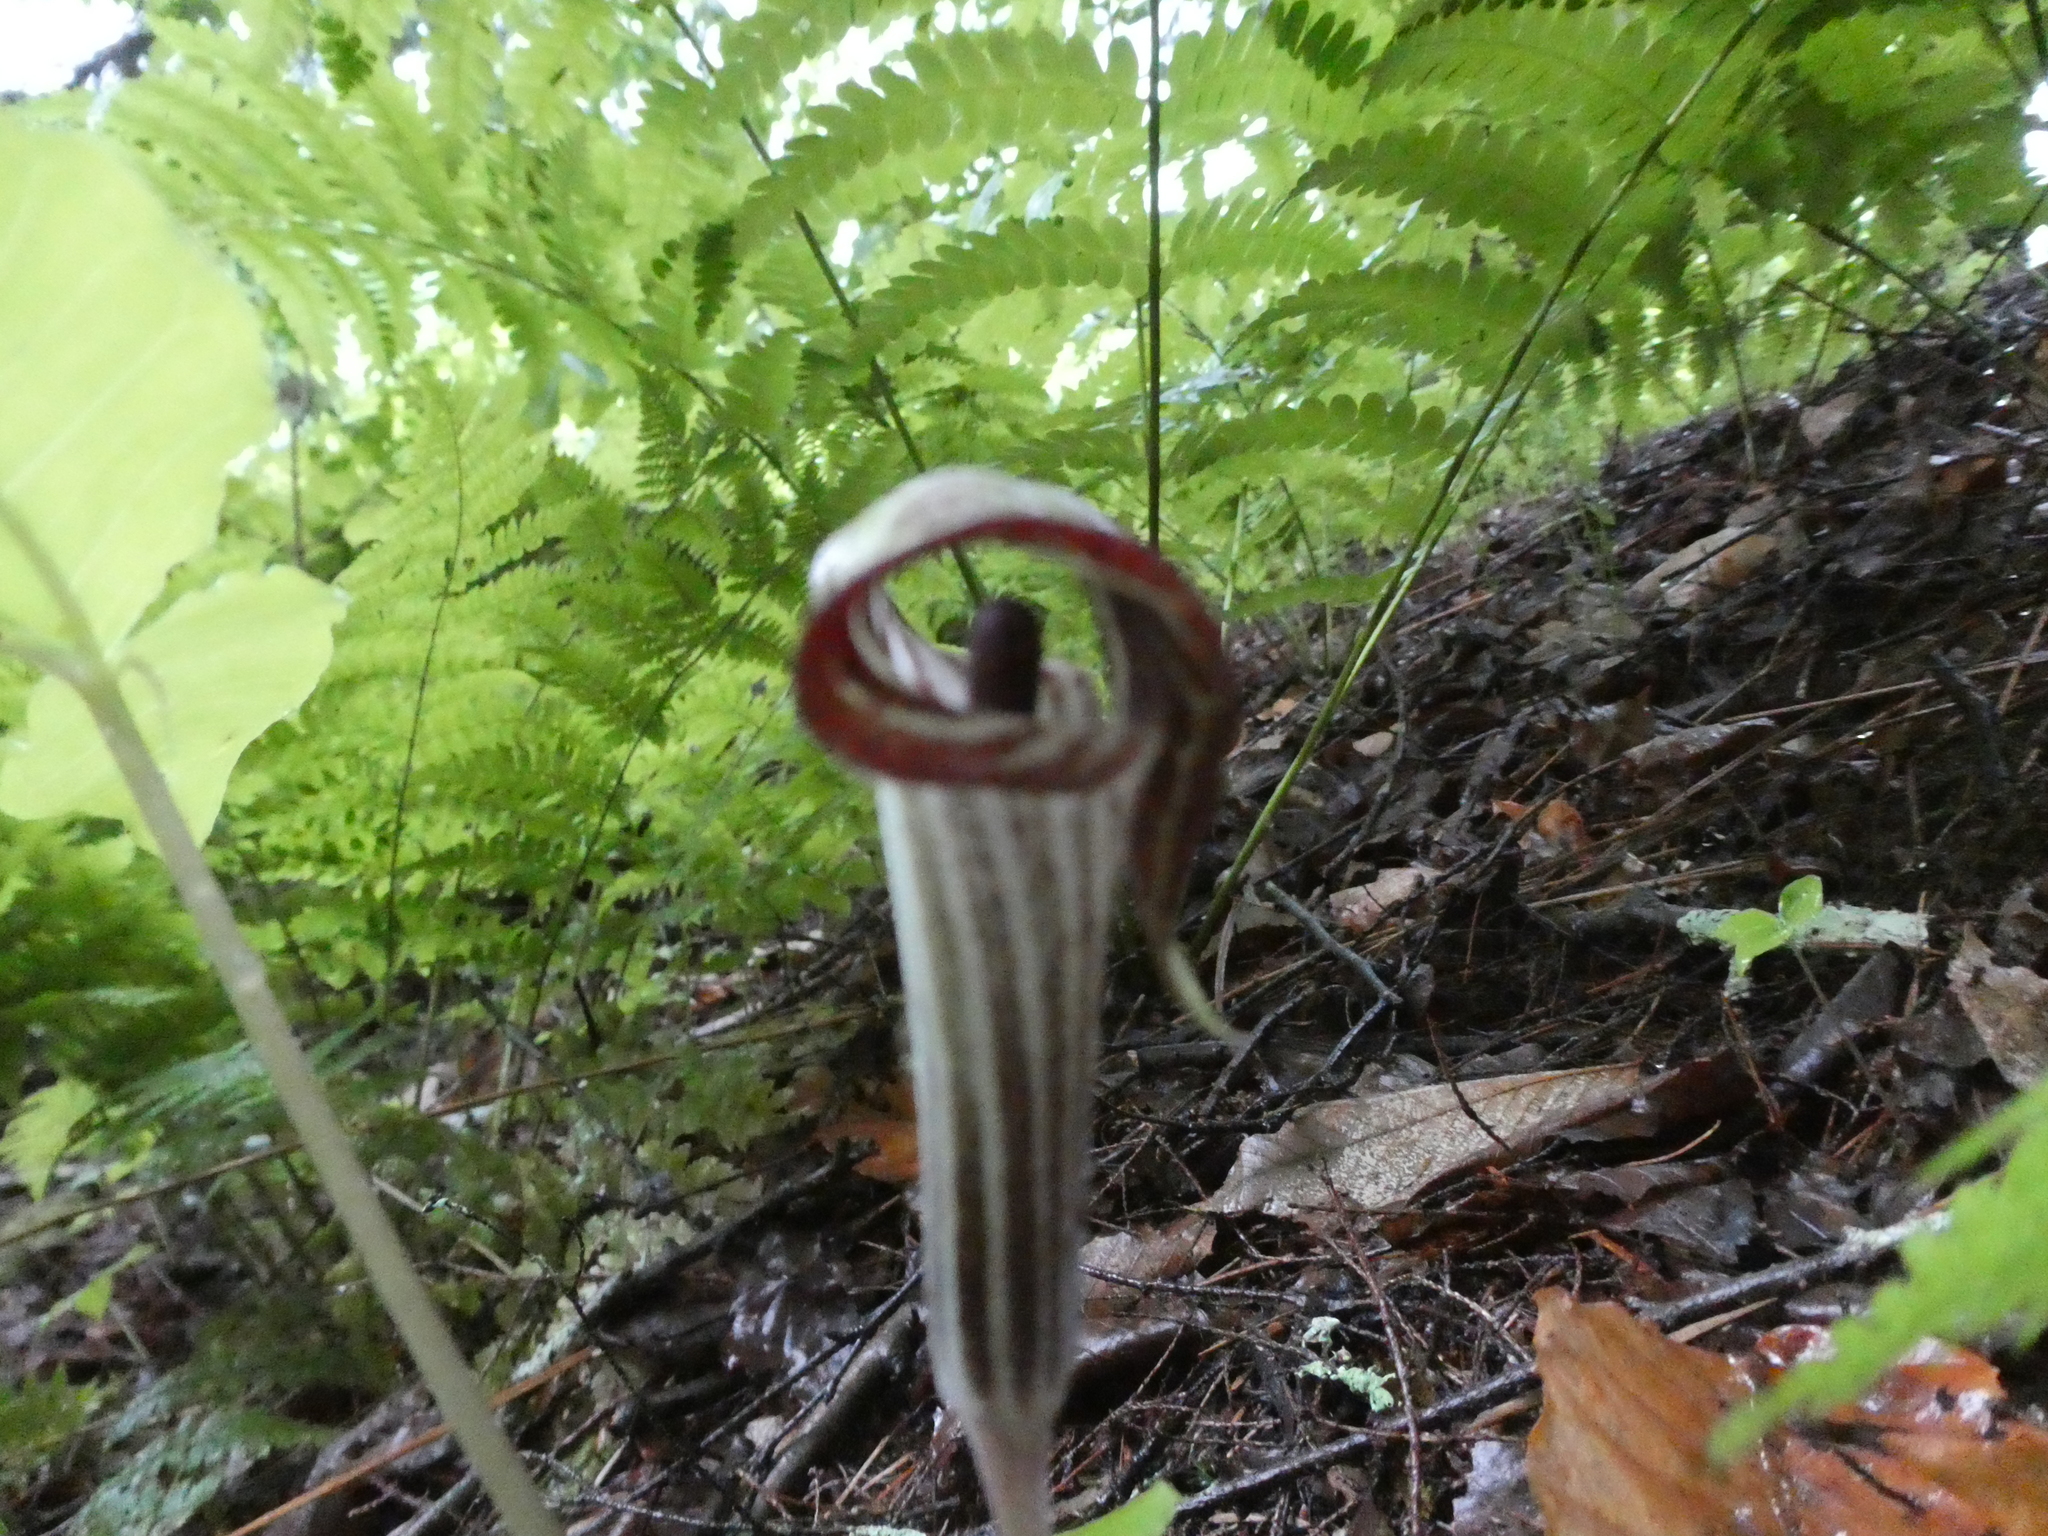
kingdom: Plantae
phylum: Tracheophyta
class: Liliopsida
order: Alismatales
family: Araceae
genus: Arisaema
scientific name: Arisaema triphyllum
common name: Jack-in-the-pulpit
